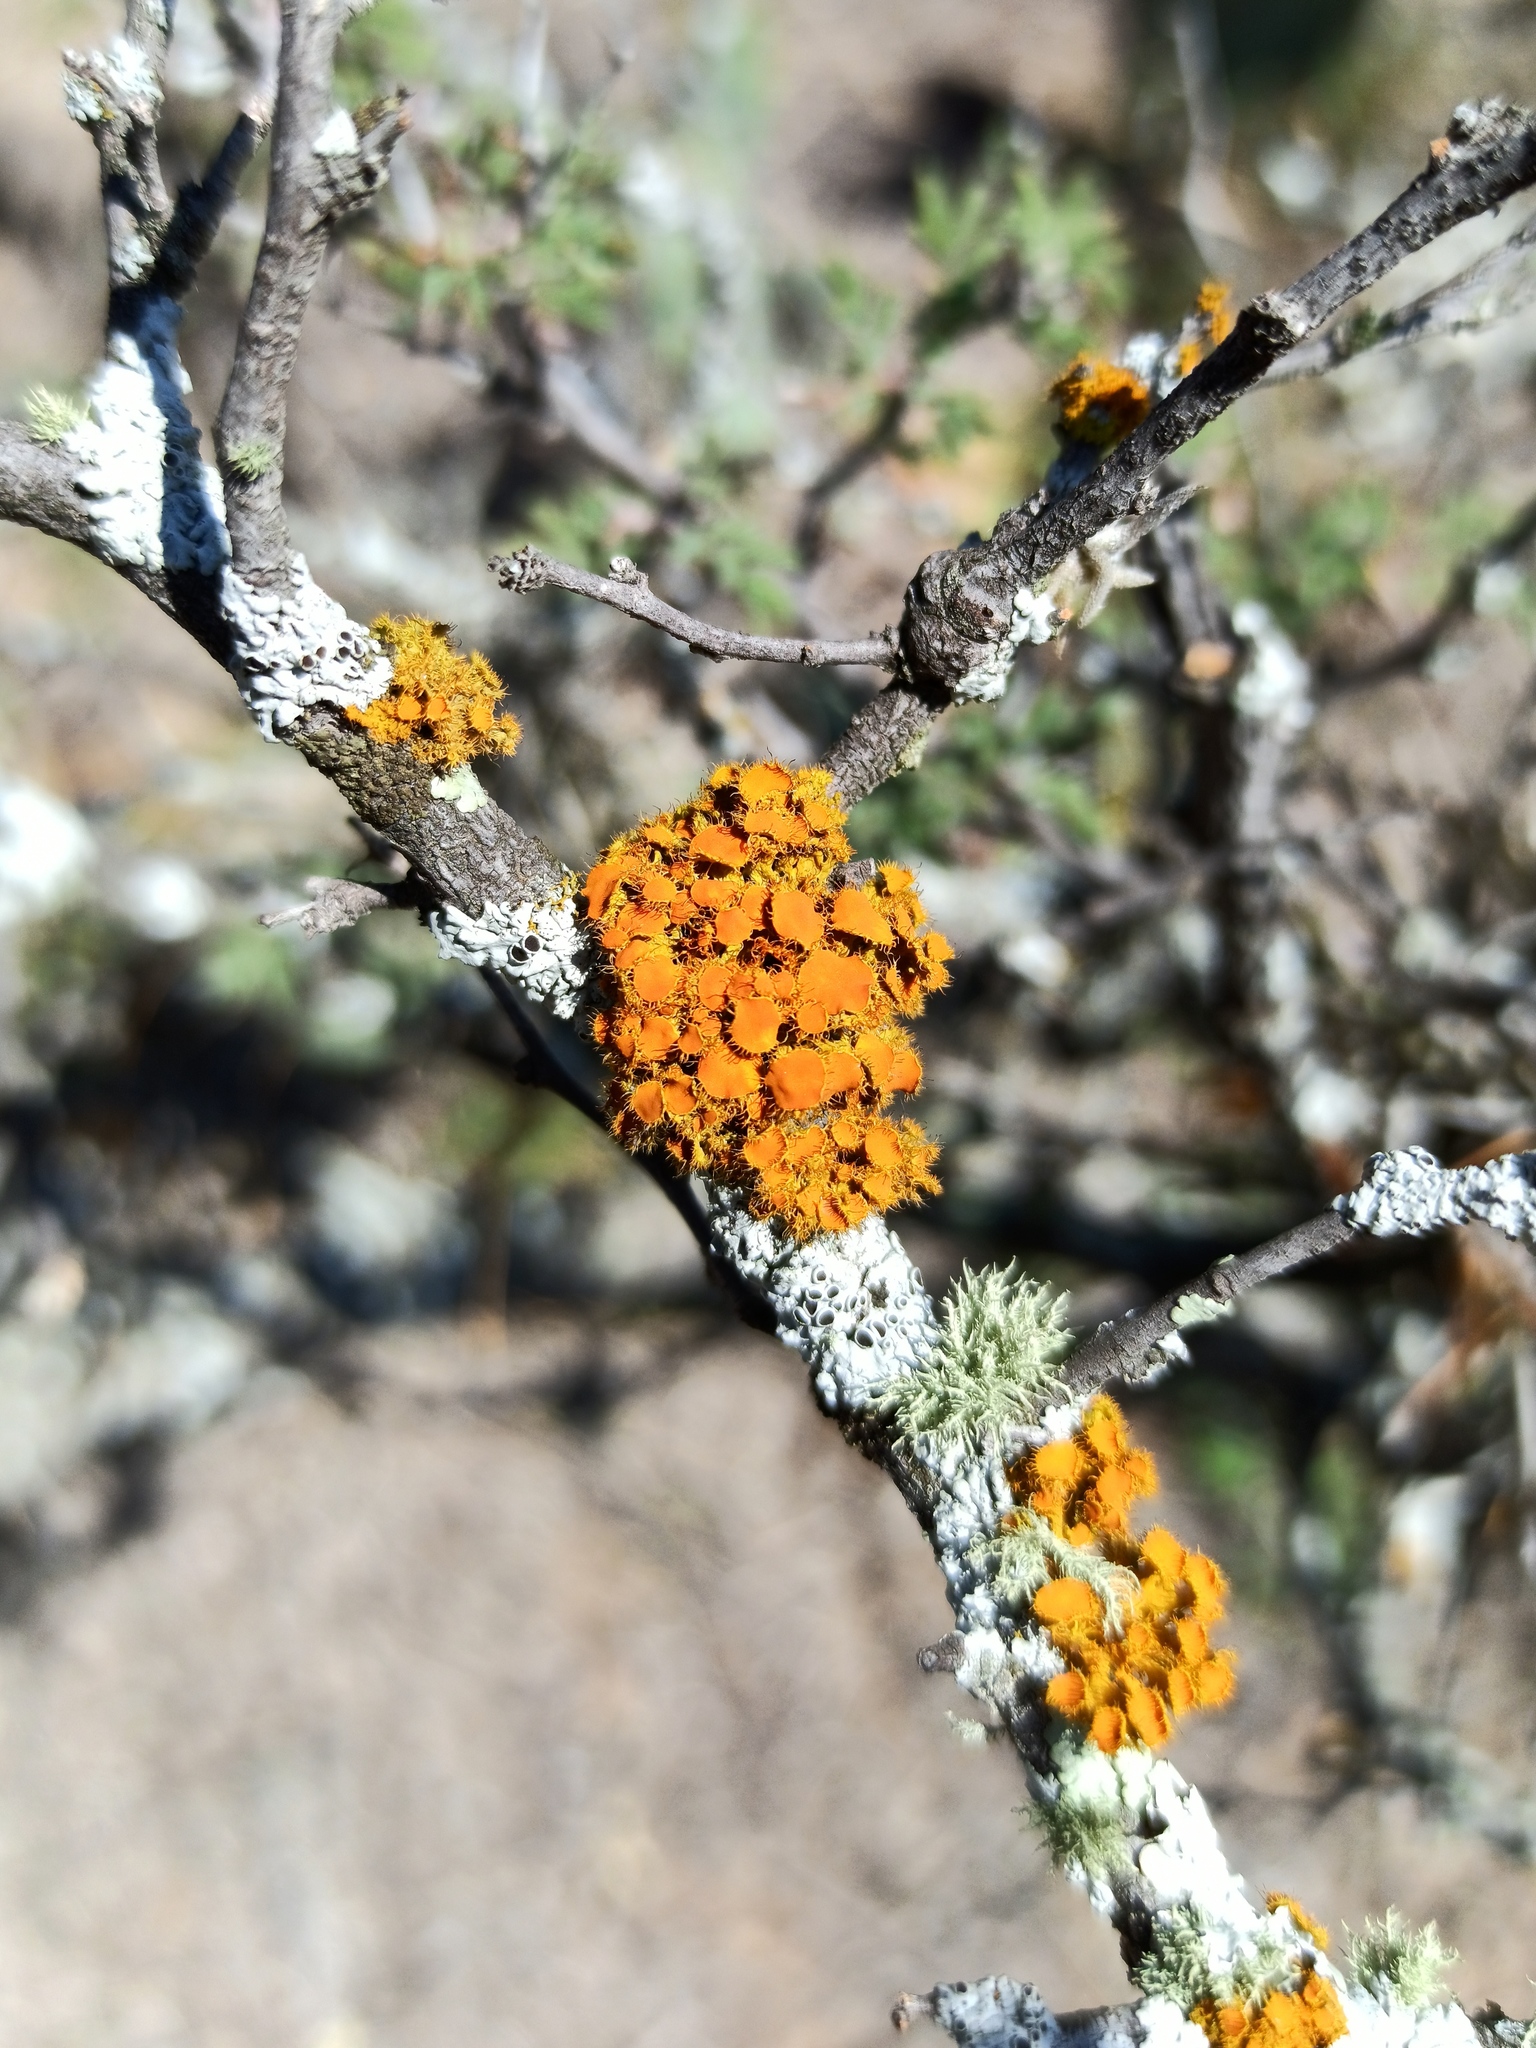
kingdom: Fungi
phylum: Ascomycota
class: Lecanoromycetes
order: Teloschistales
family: Teloschistaceae
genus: Niorma
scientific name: Niorma chrysophthalma
